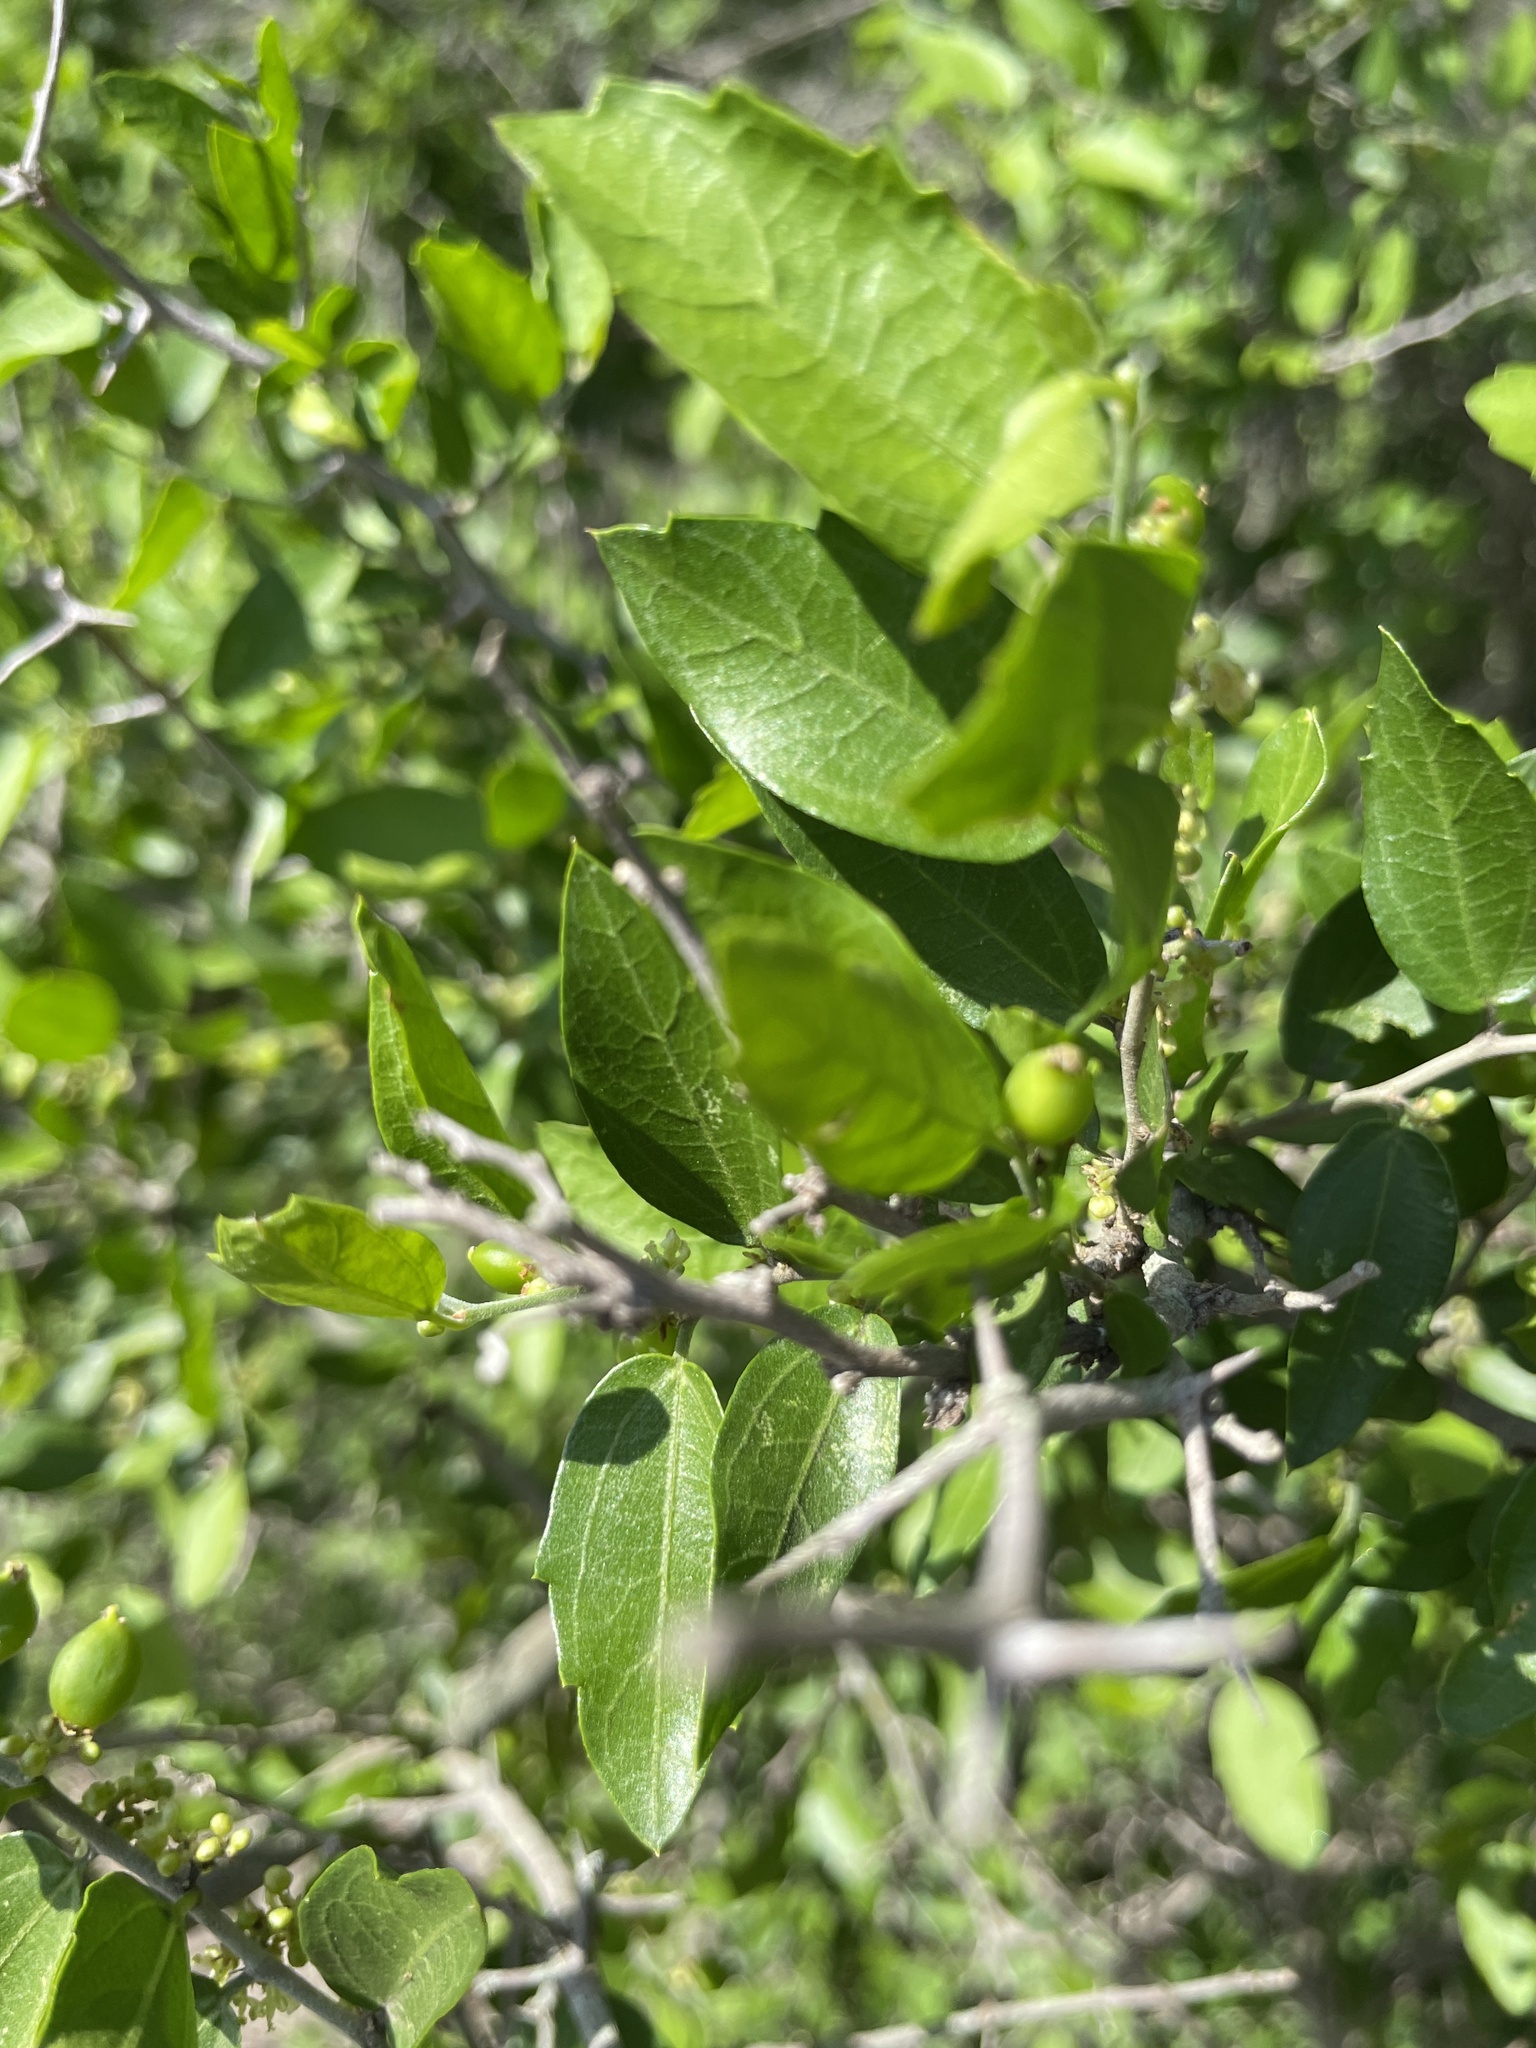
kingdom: Plantae
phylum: Tracheophyta
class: Magnoliopsida
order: Rosales
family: Cannabaceae
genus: Celtis
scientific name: Celtis pallida
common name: Desert hackberry
